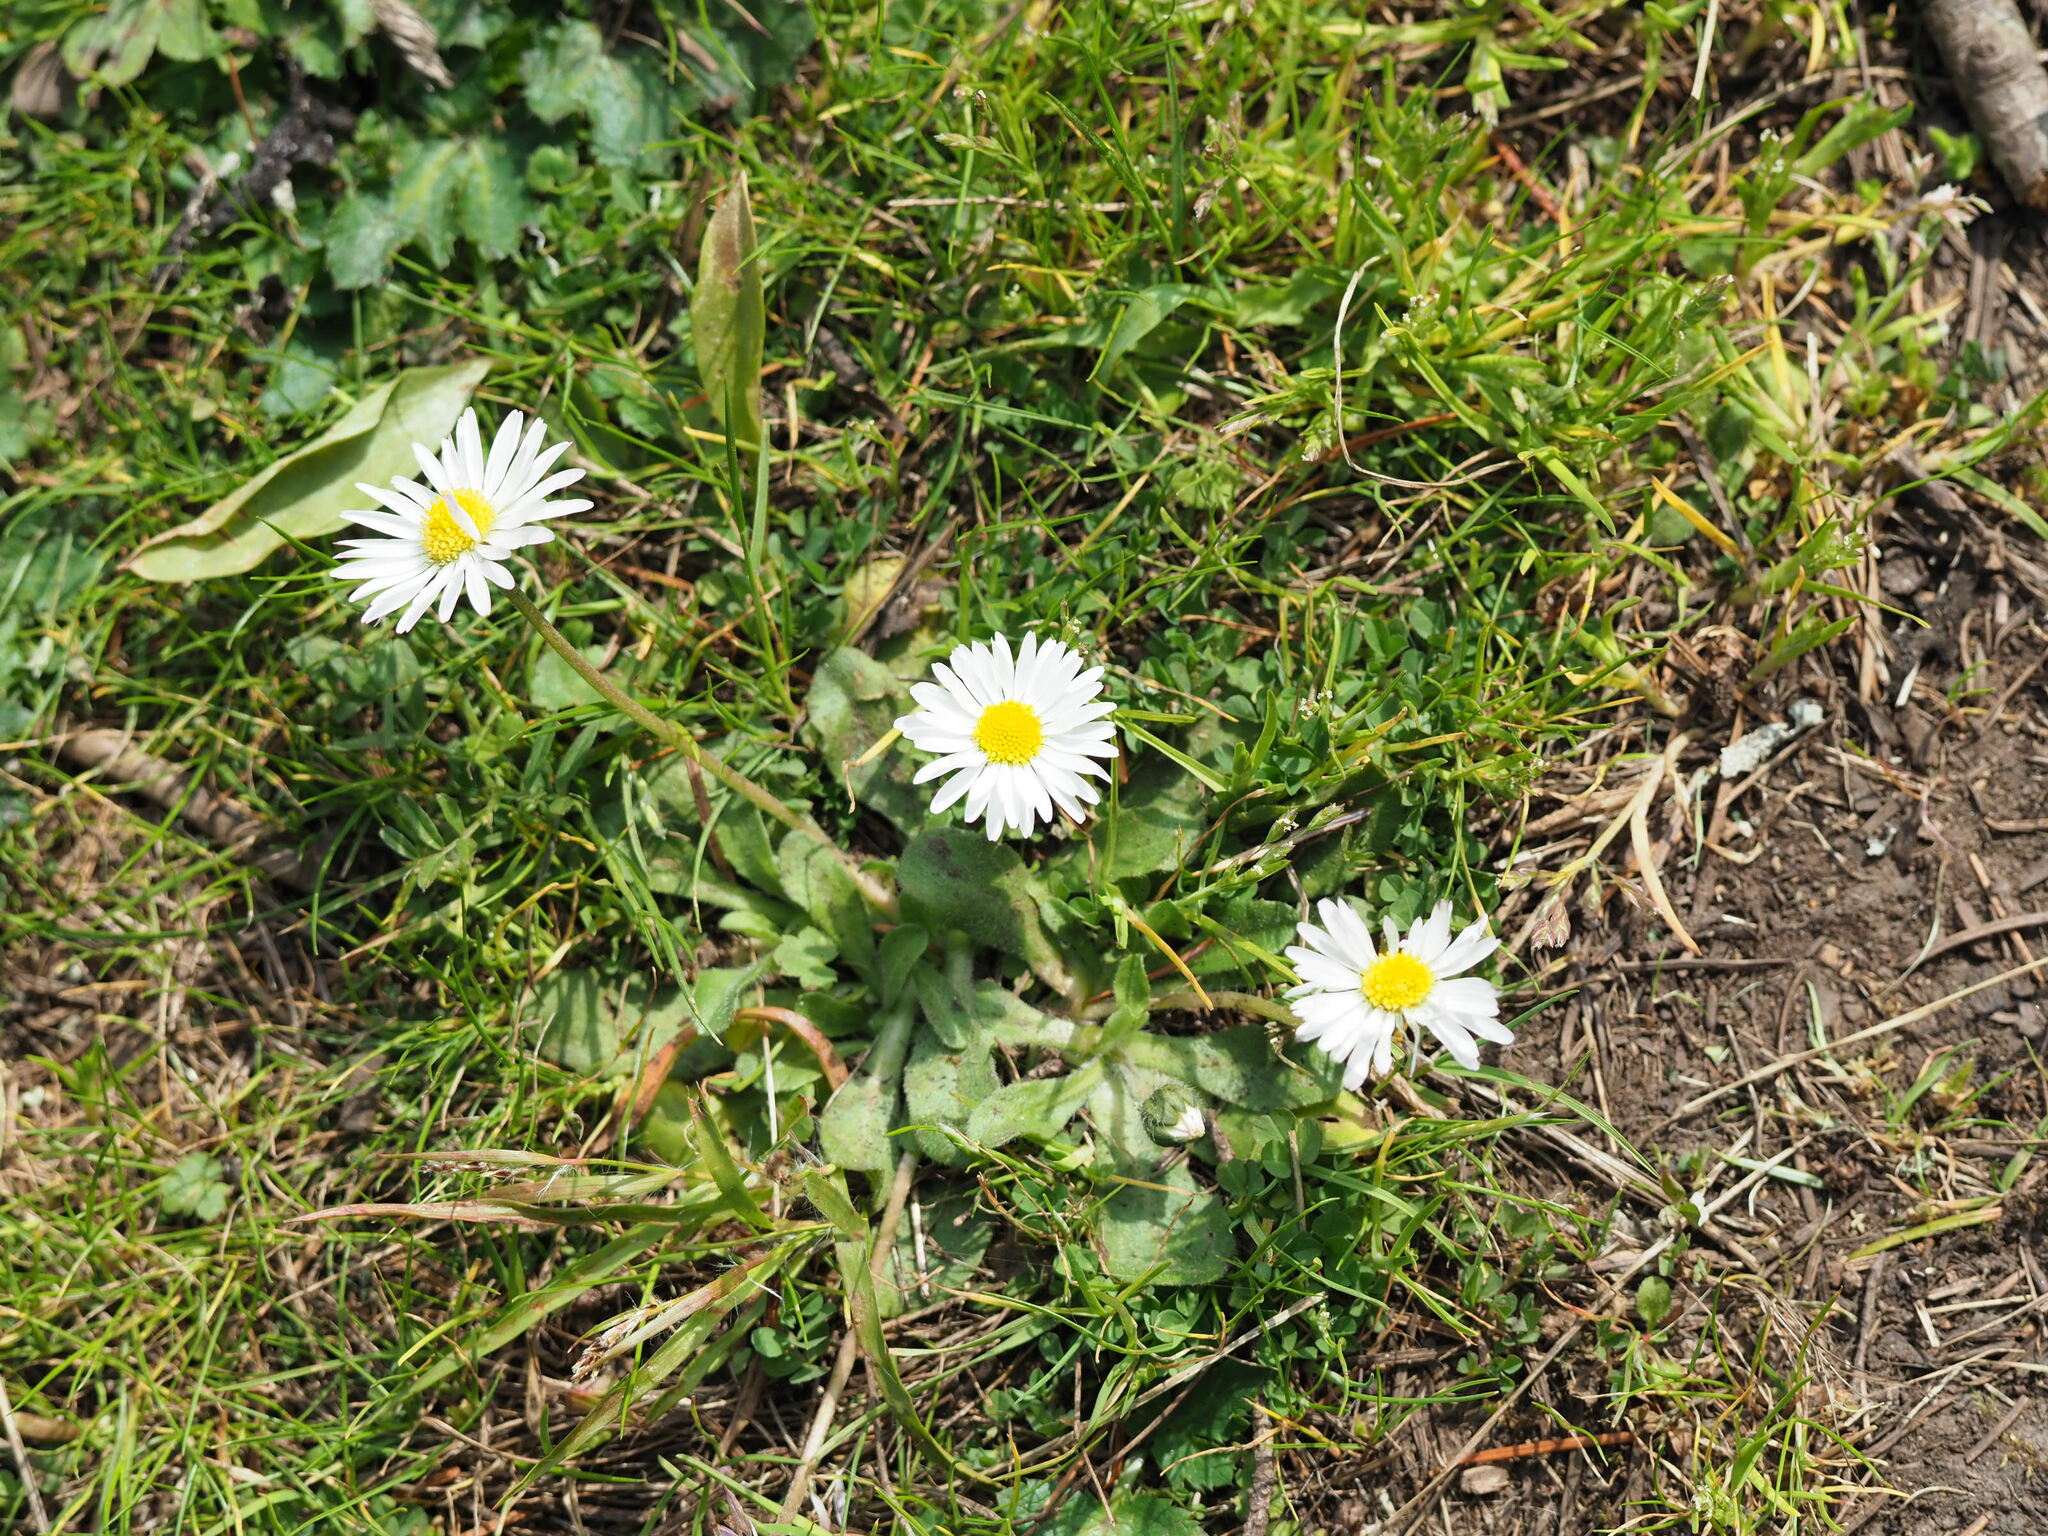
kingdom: Plantae
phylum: Tracheophyta
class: Magnoliopsida
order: Asterales
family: Asteraceae
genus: Bellis
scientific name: Bellis perennis
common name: Lawndaisy
